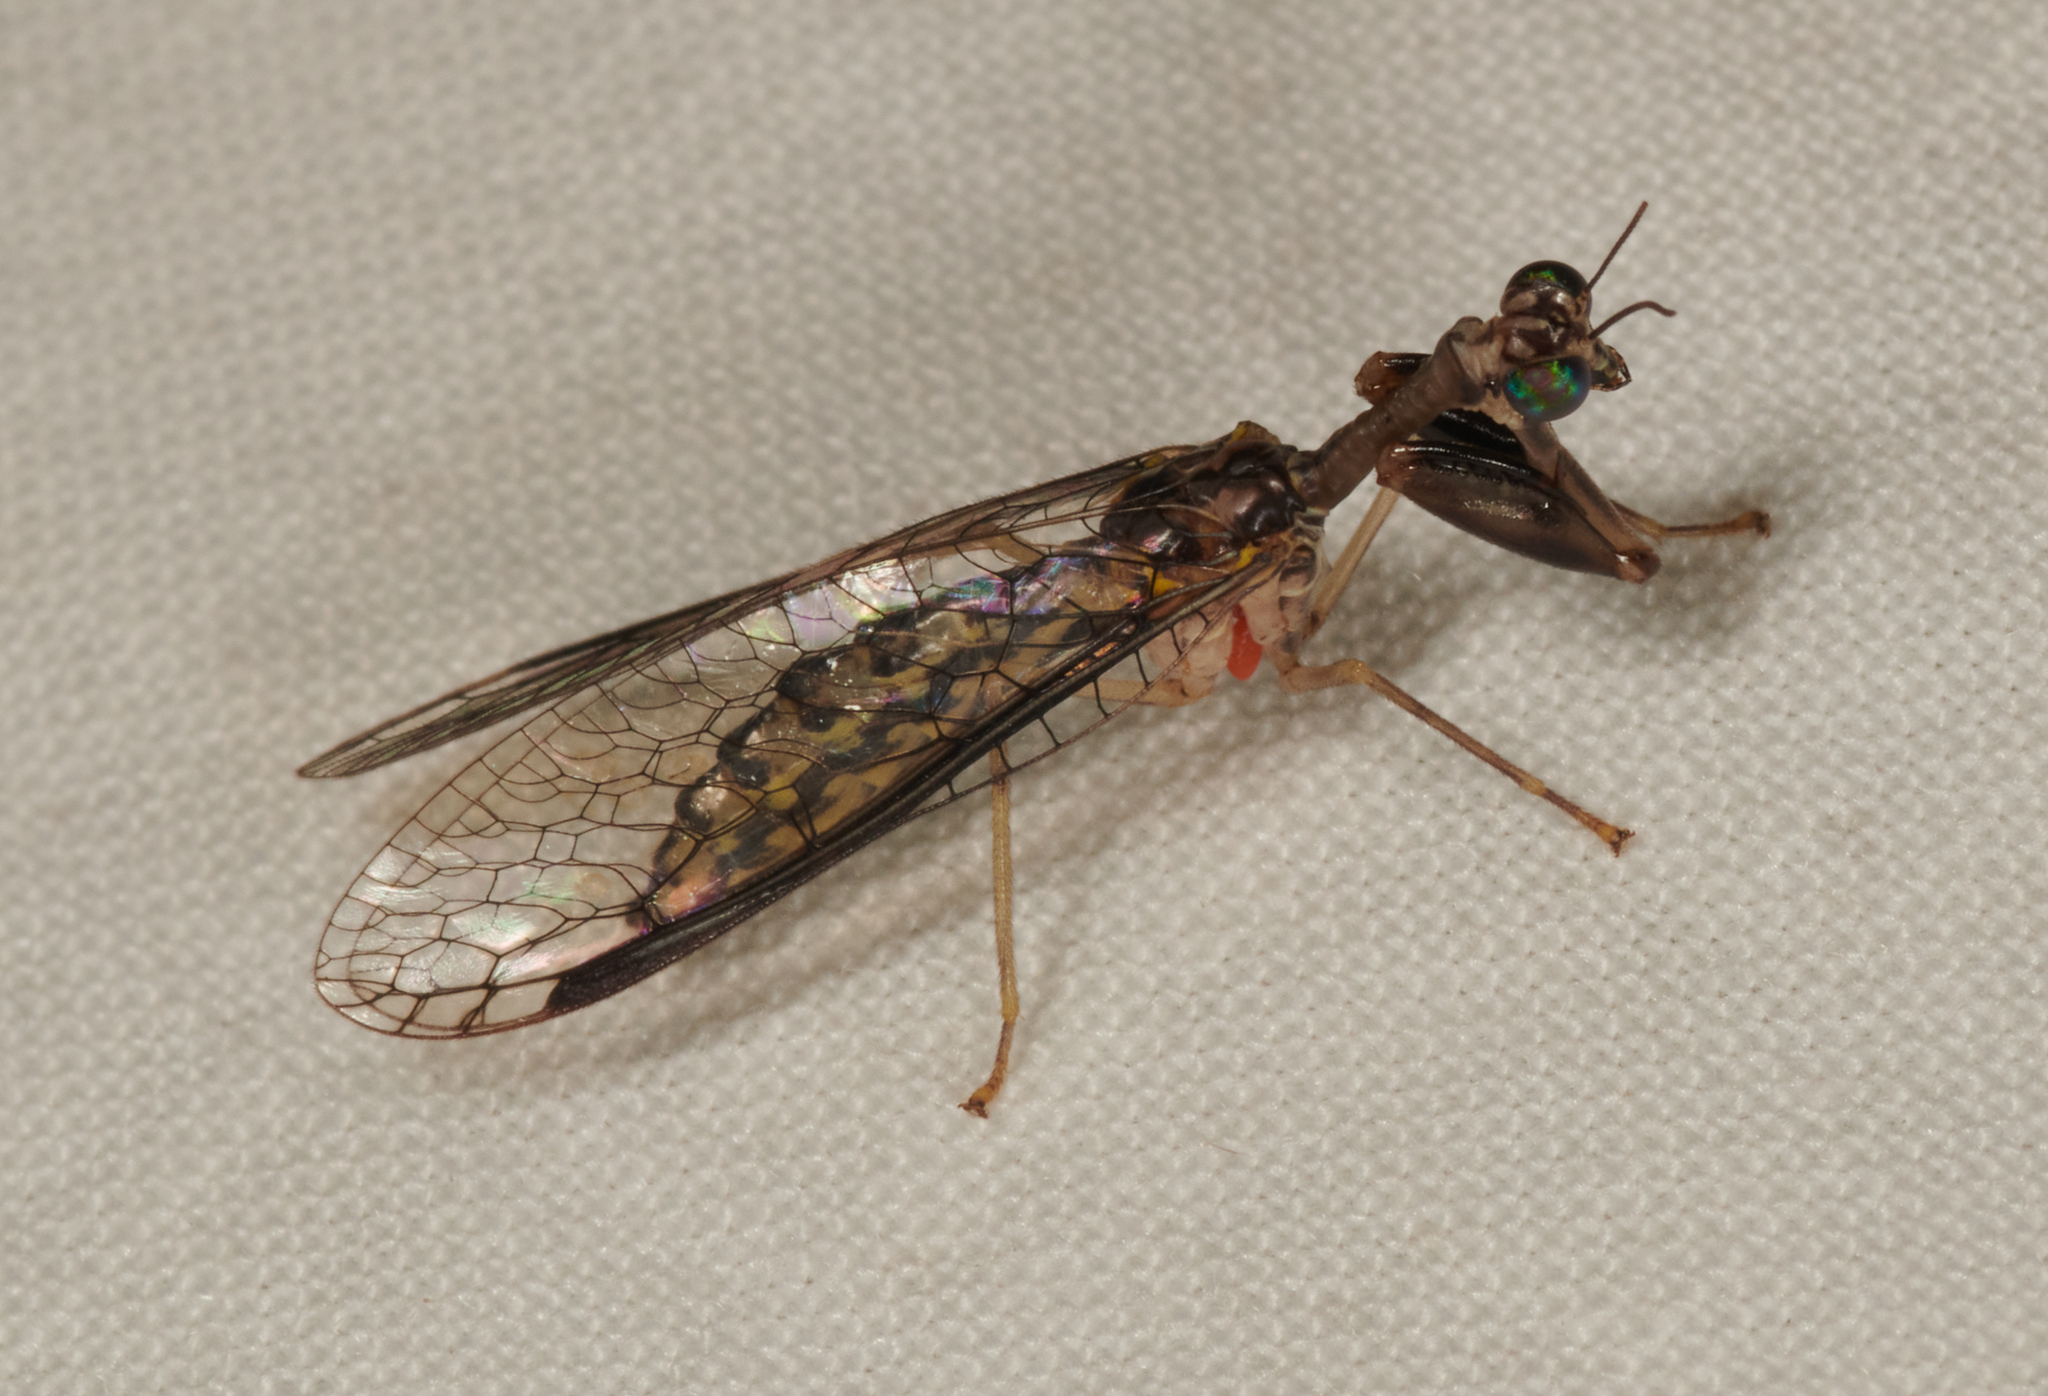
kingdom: Animalia
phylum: Arthropoda
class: Insecta
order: Neuroptera
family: Mantispidae
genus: Dicromantispa
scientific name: Dicromantispa sayi
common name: Say's mantidfly
